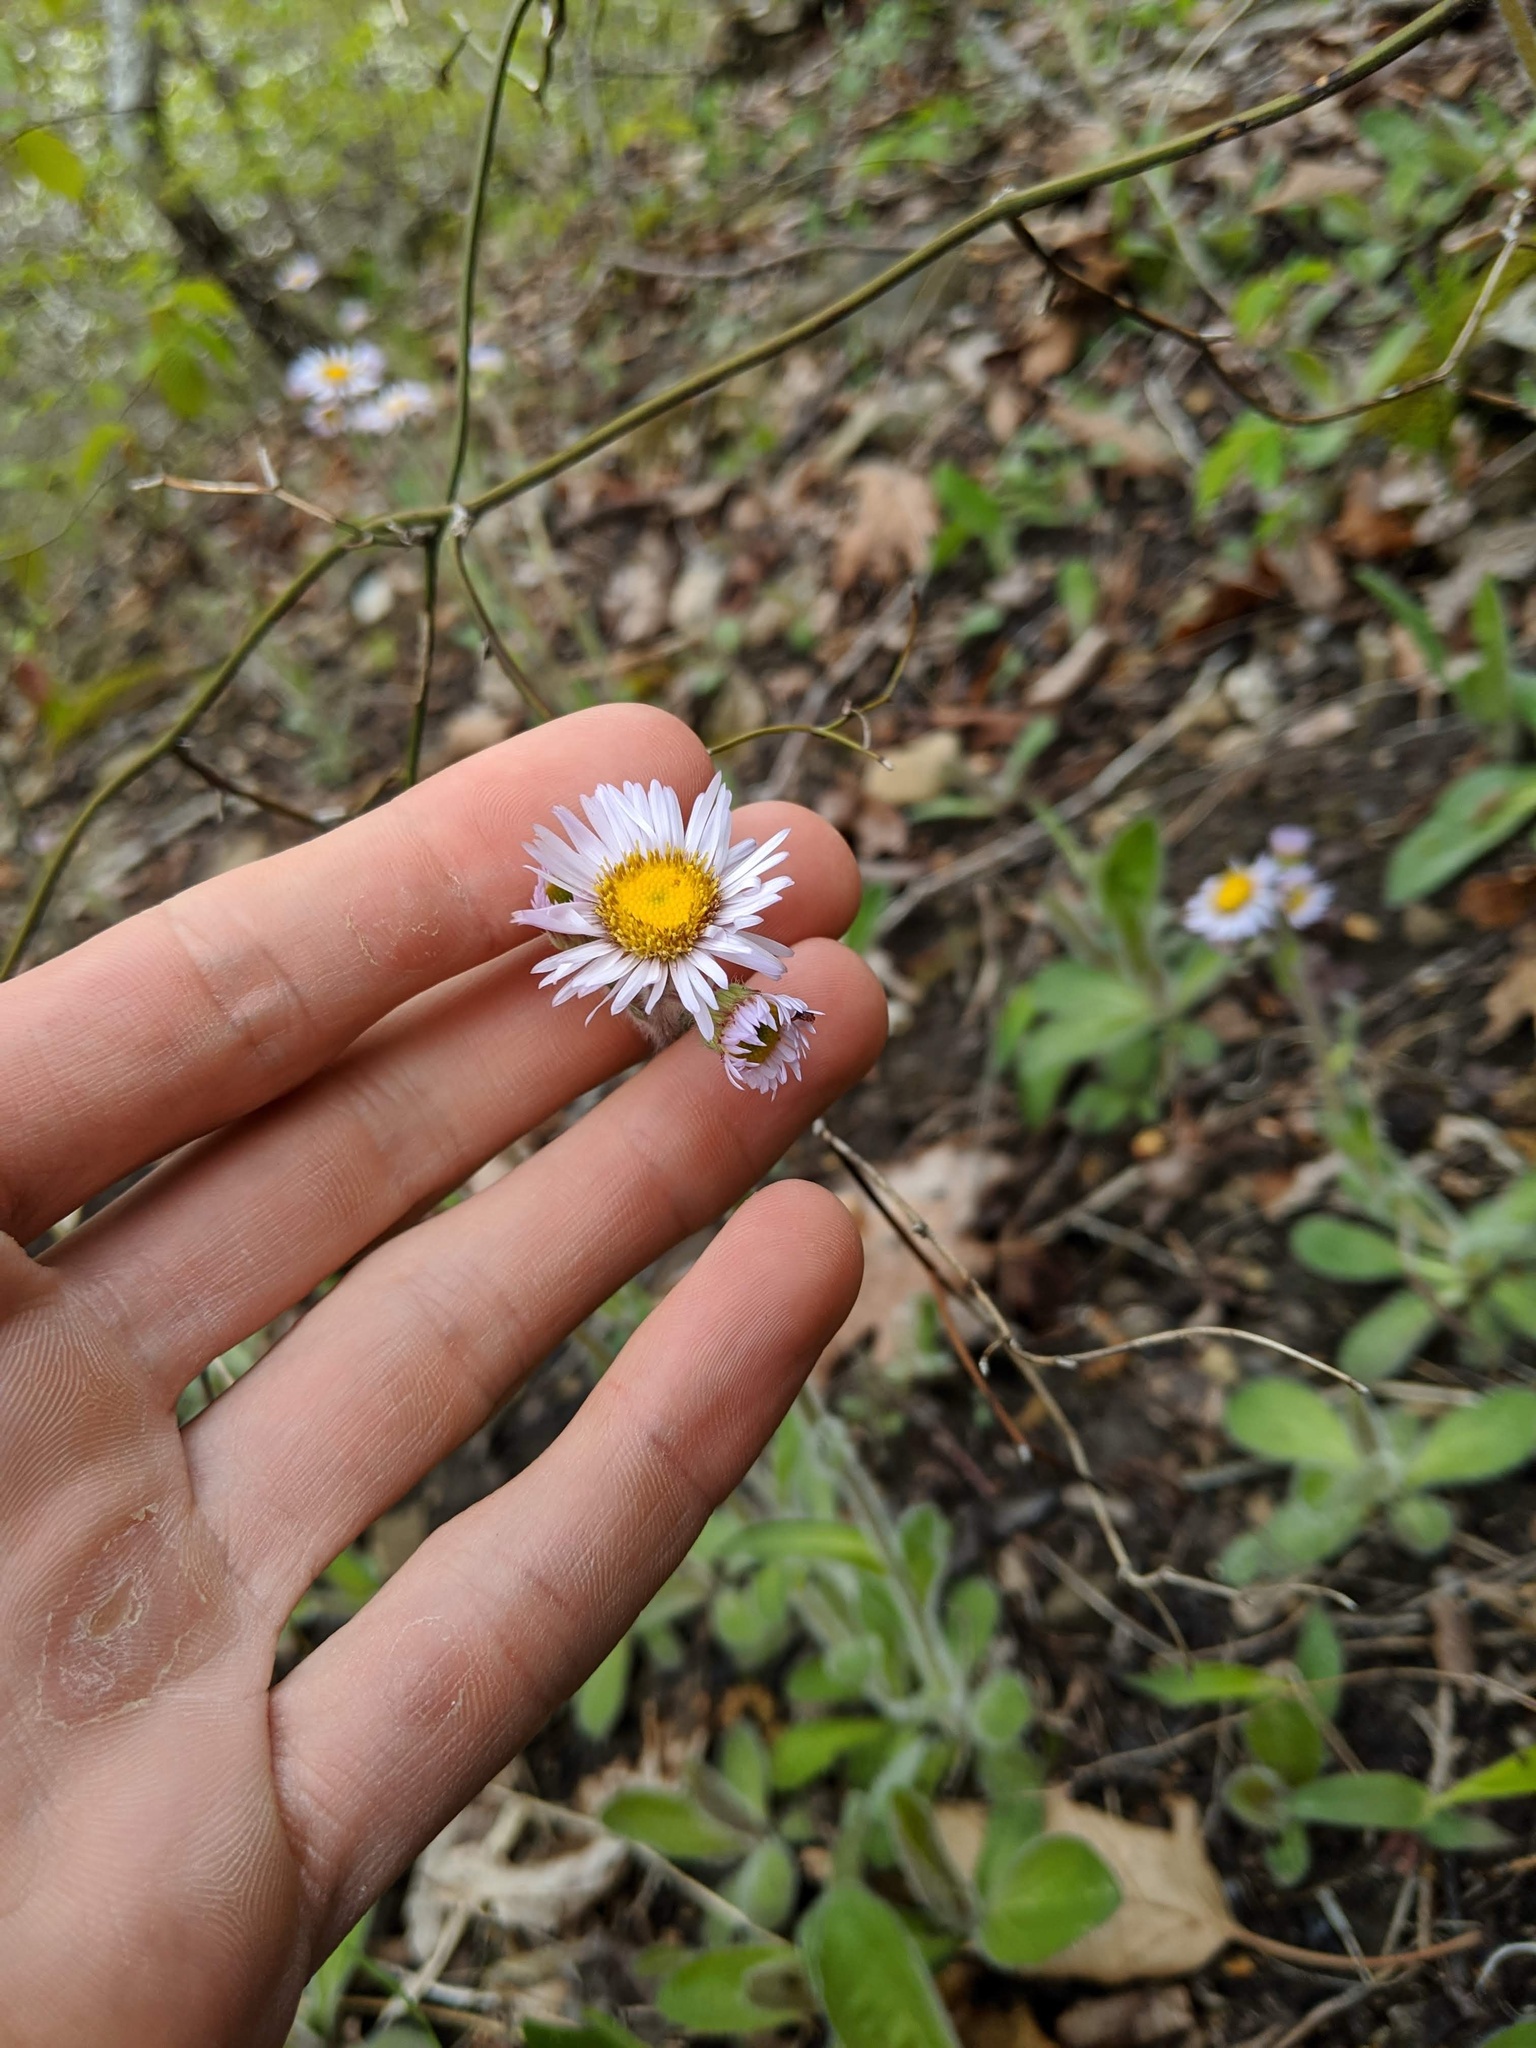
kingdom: Plantae
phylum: Tracheophyta
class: Magnoliopsida
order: Asterales
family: Asteraceae
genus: Erigeron
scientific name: Erigeron pulchellus
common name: Hairy fleabane
